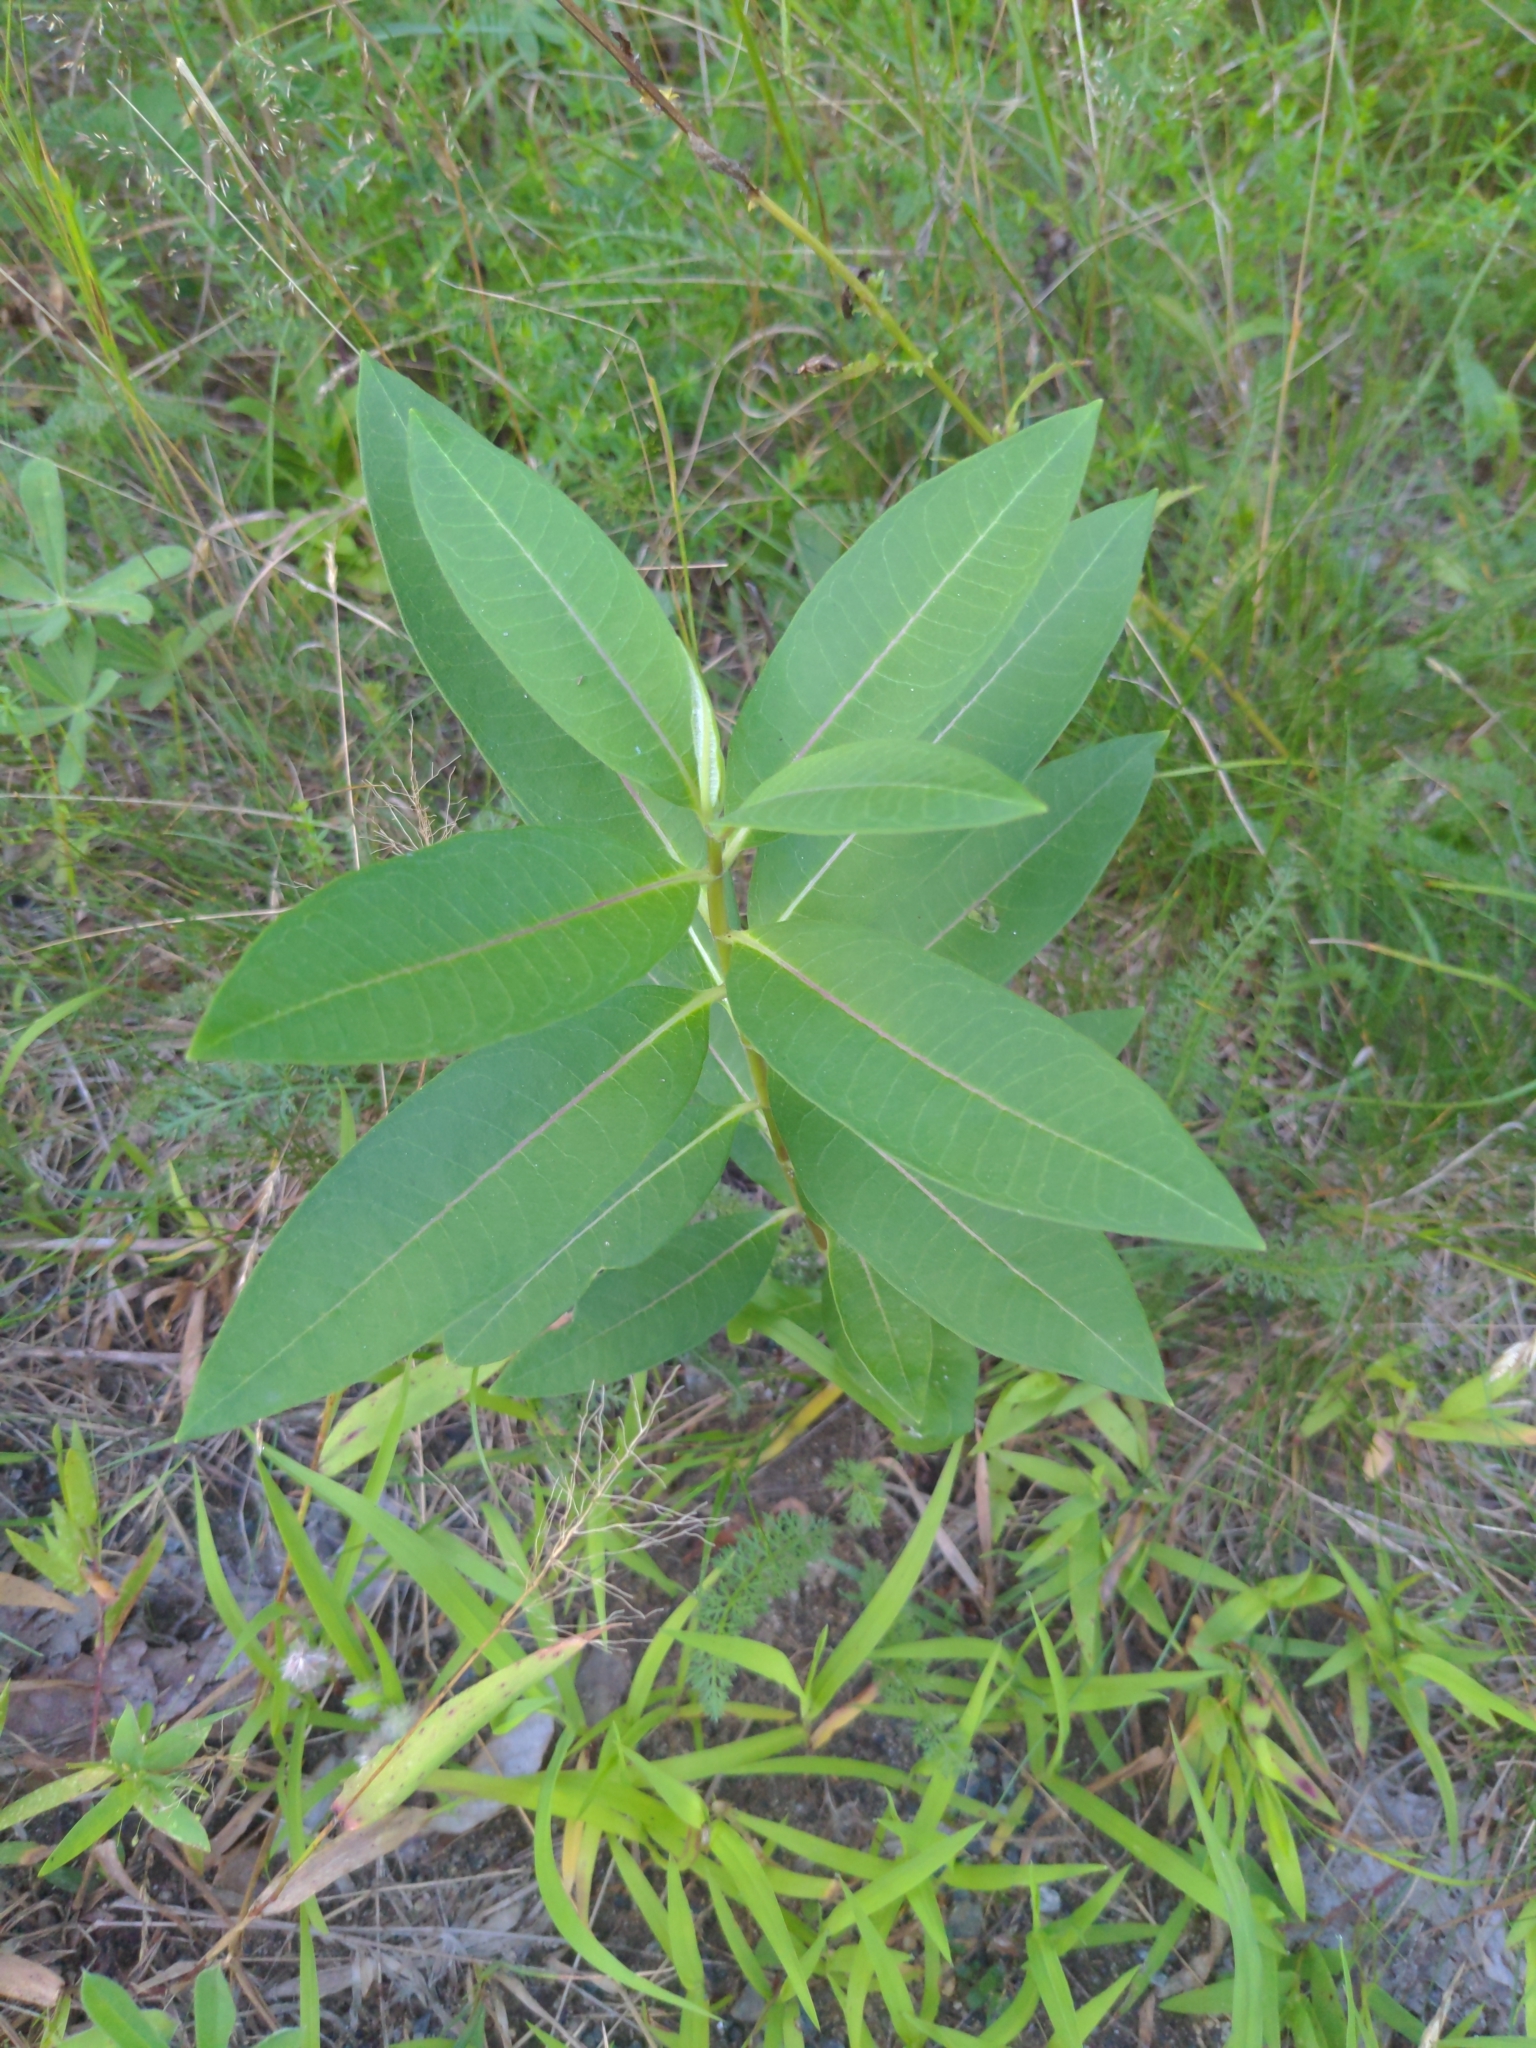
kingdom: Plantae
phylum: Tracheophyta
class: Magnoliopsida
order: Gentianales
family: Apocynaceae
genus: Asclepias
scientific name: Asclepias syriaca
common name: Common milkweed
